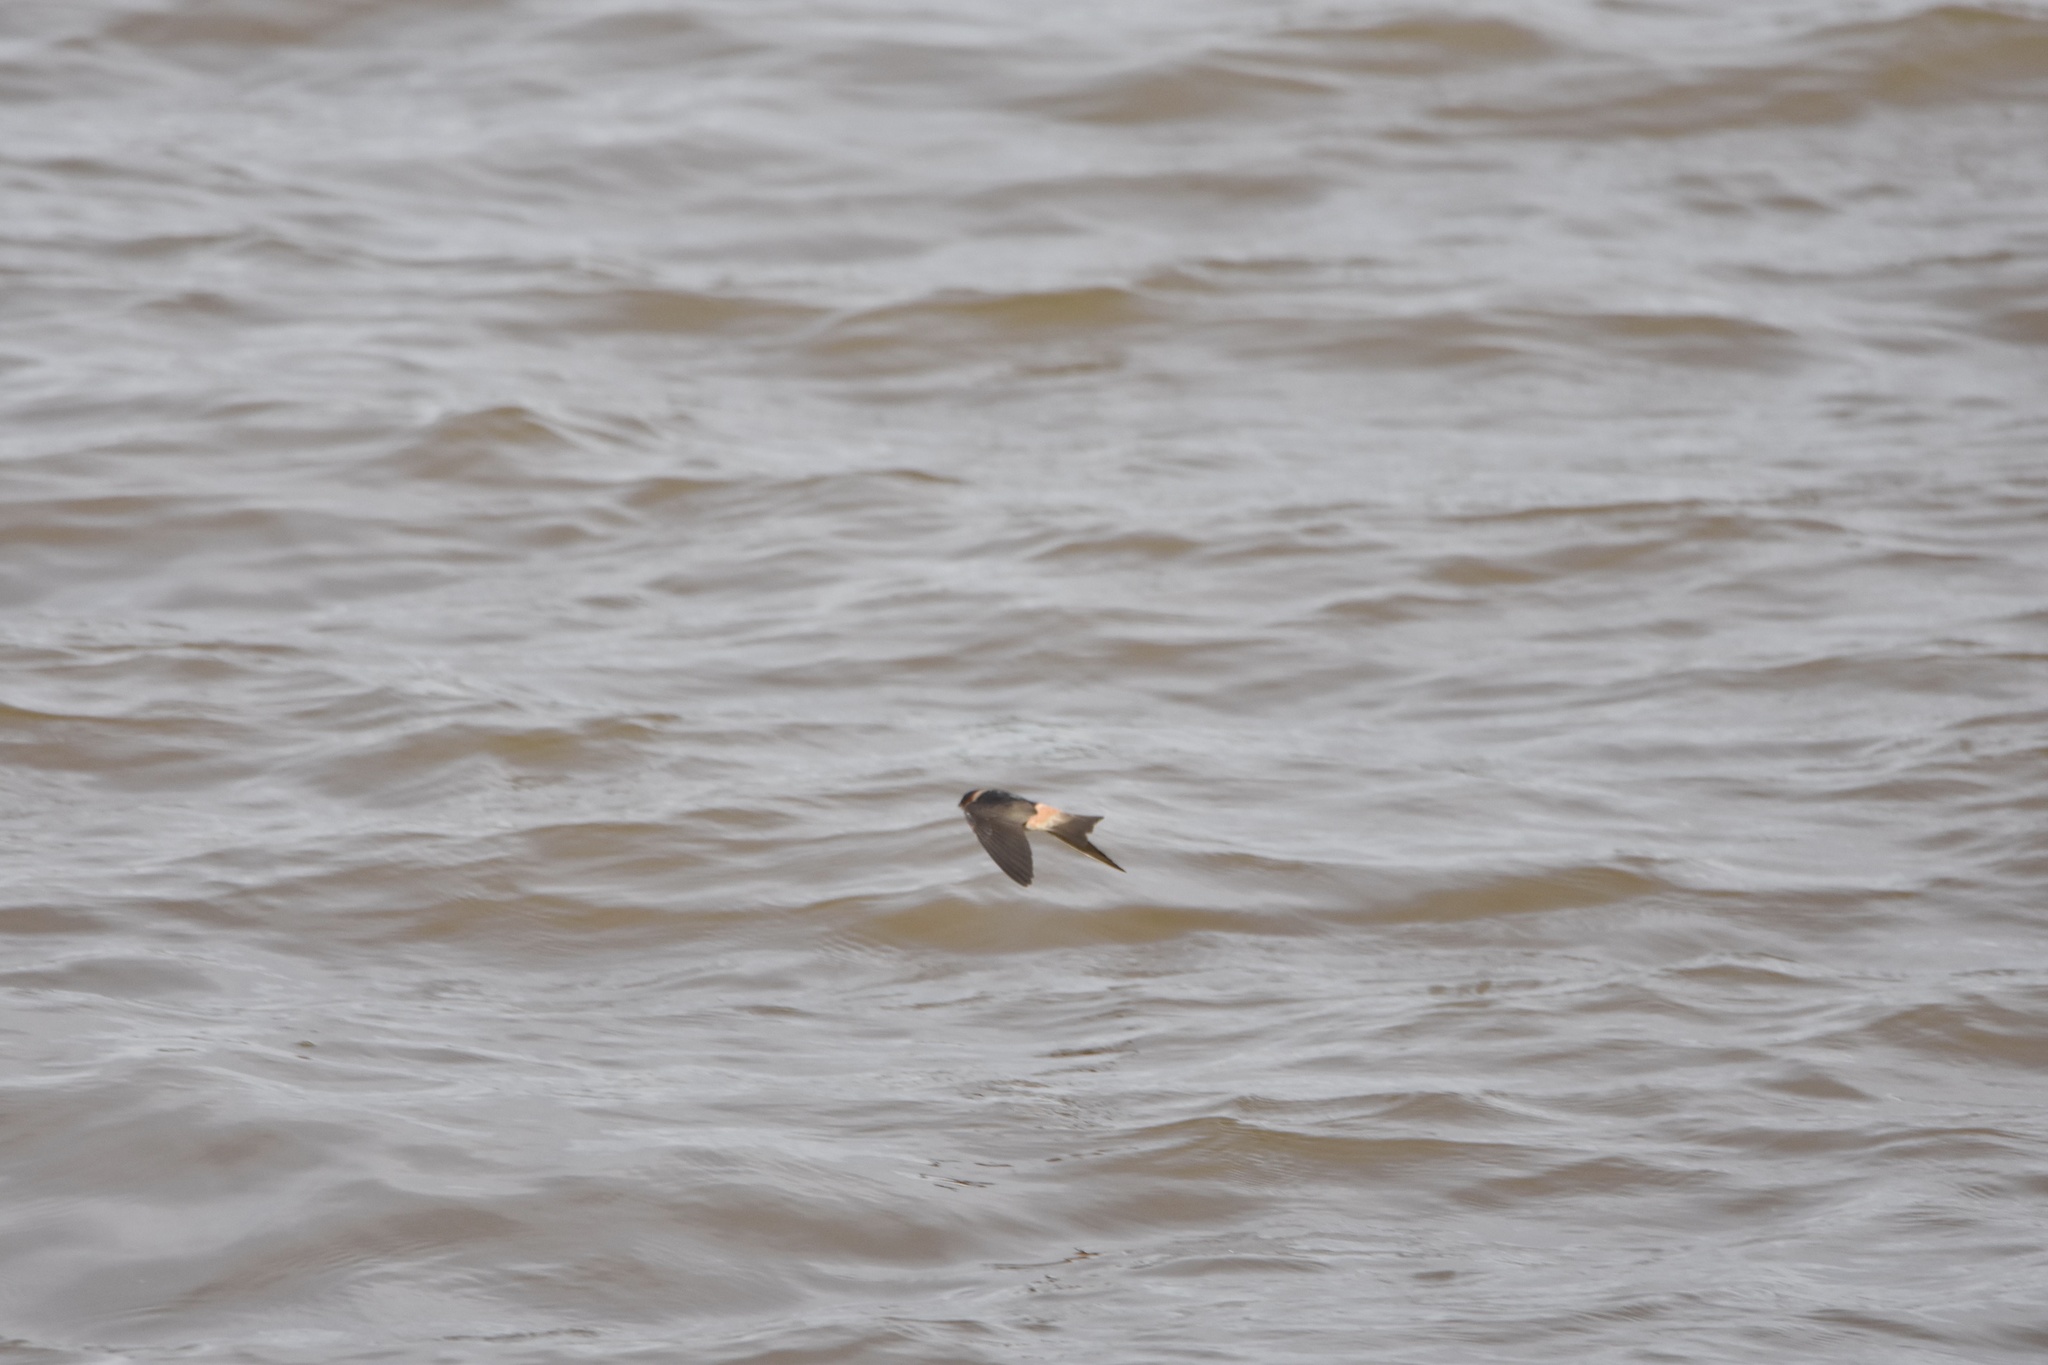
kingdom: Animalia
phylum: Chordata
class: Aves
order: Passeriformes
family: Hirundinidae
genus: Petrochelidon
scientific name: Petrochelidon pyrrhonota
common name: American cliff swallow
